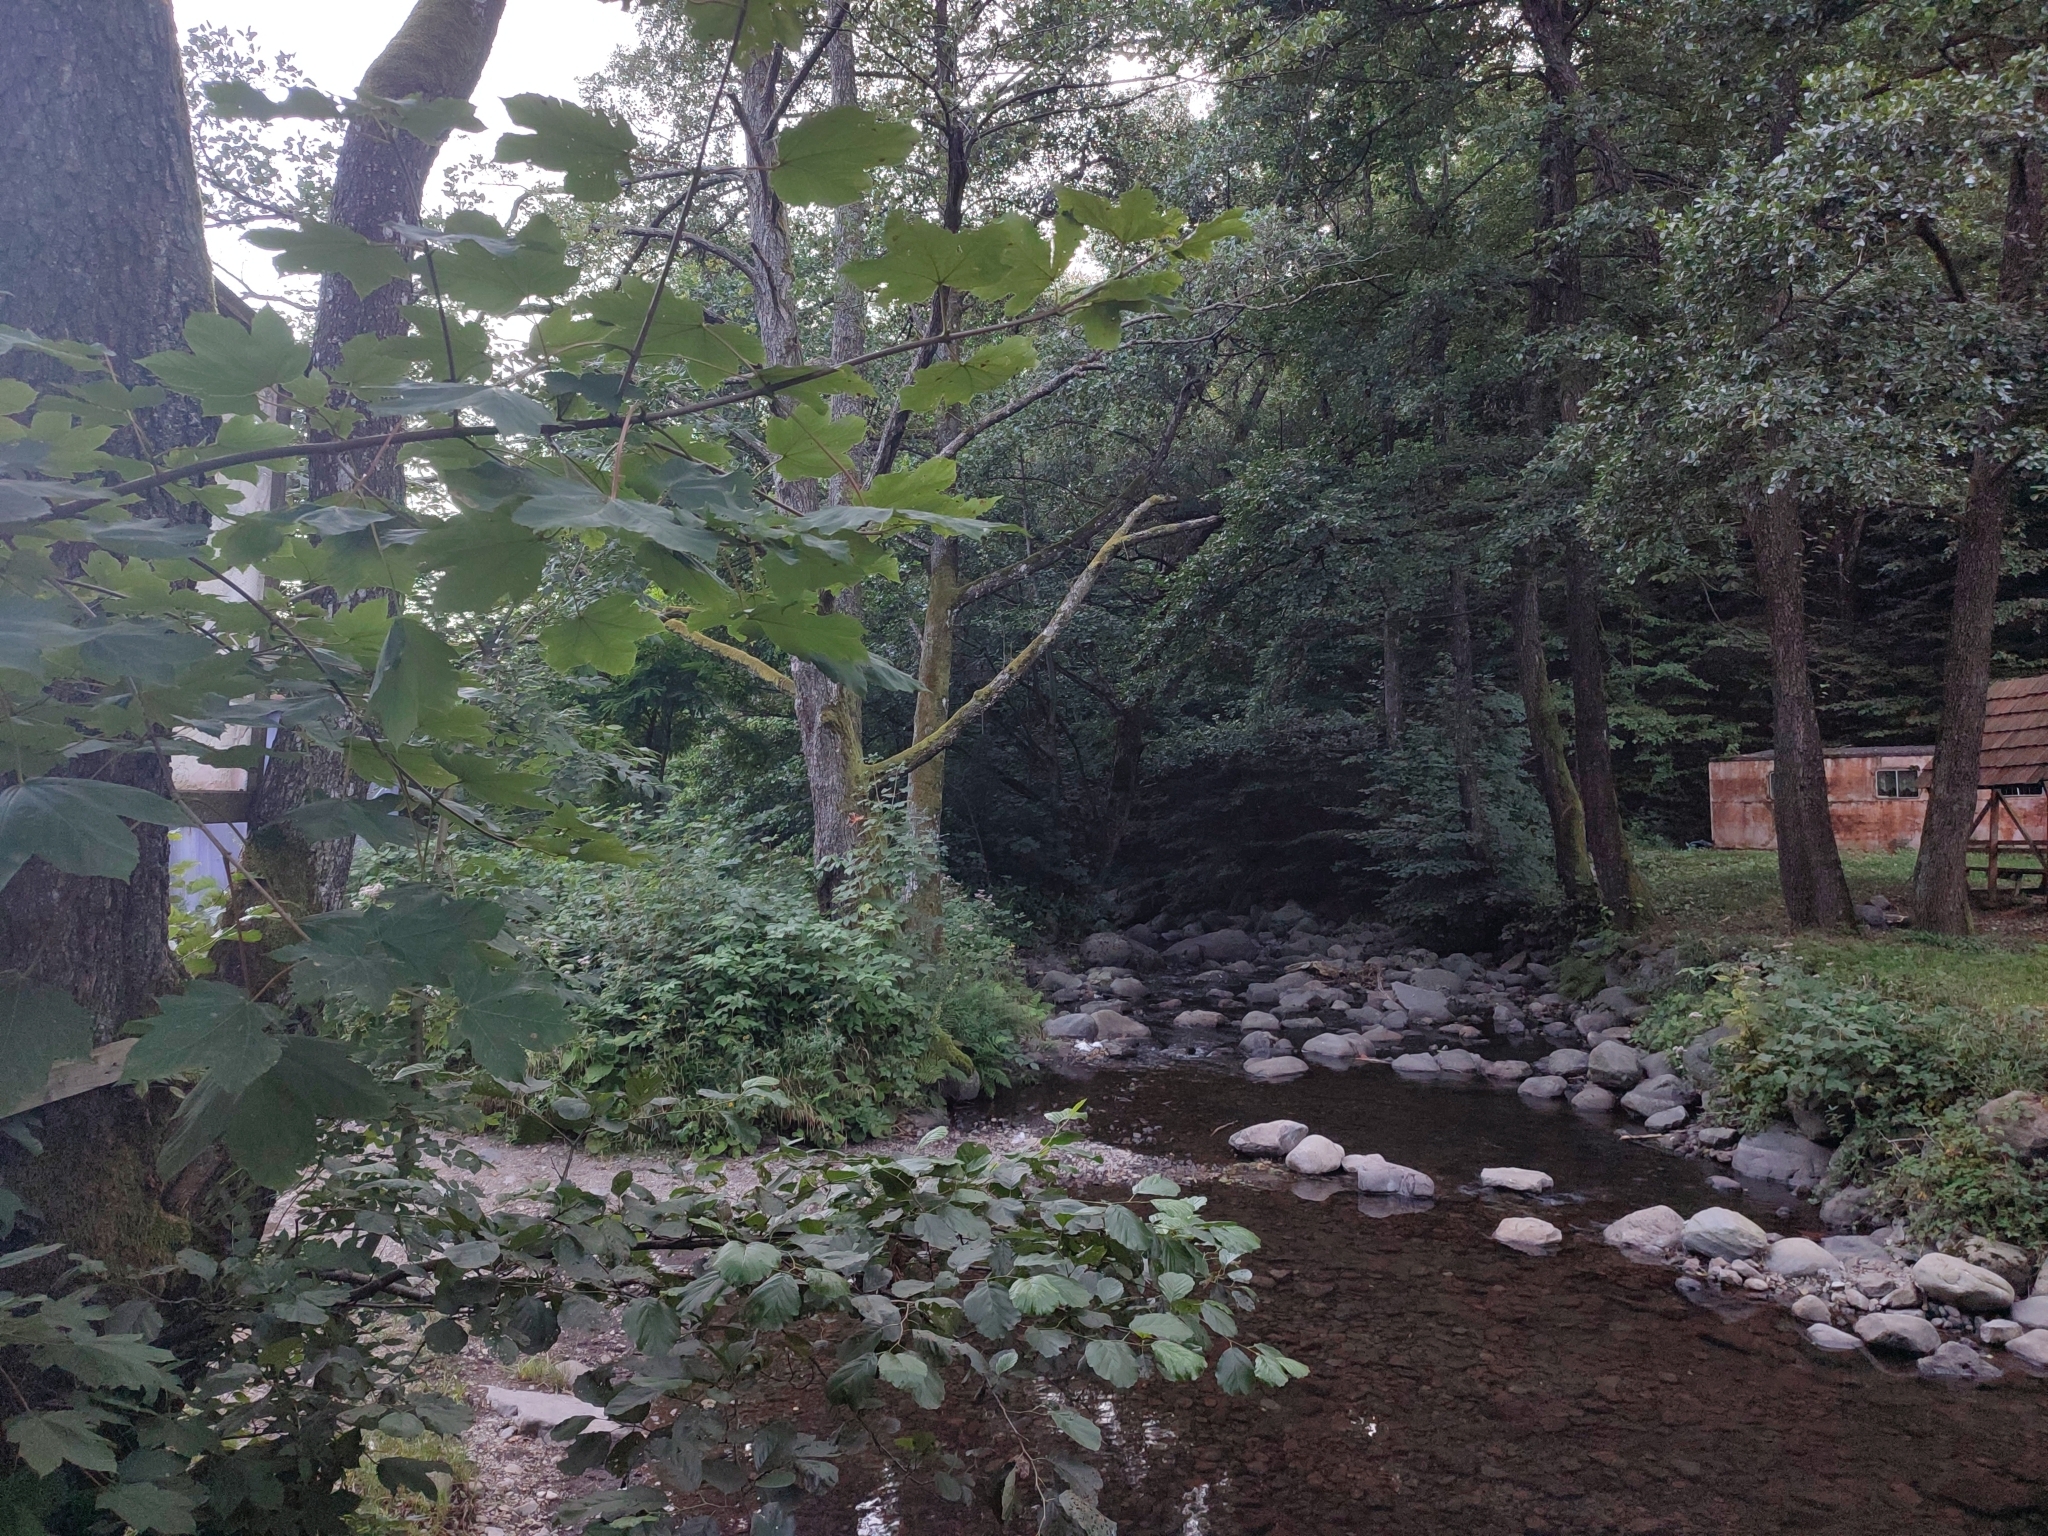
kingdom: Plantae
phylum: Tracheophyta
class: Magnoliopsida
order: Sapindales
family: Sapindaceae
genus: Acer
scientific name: Acer pseudoplatanus
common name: Sycamore
